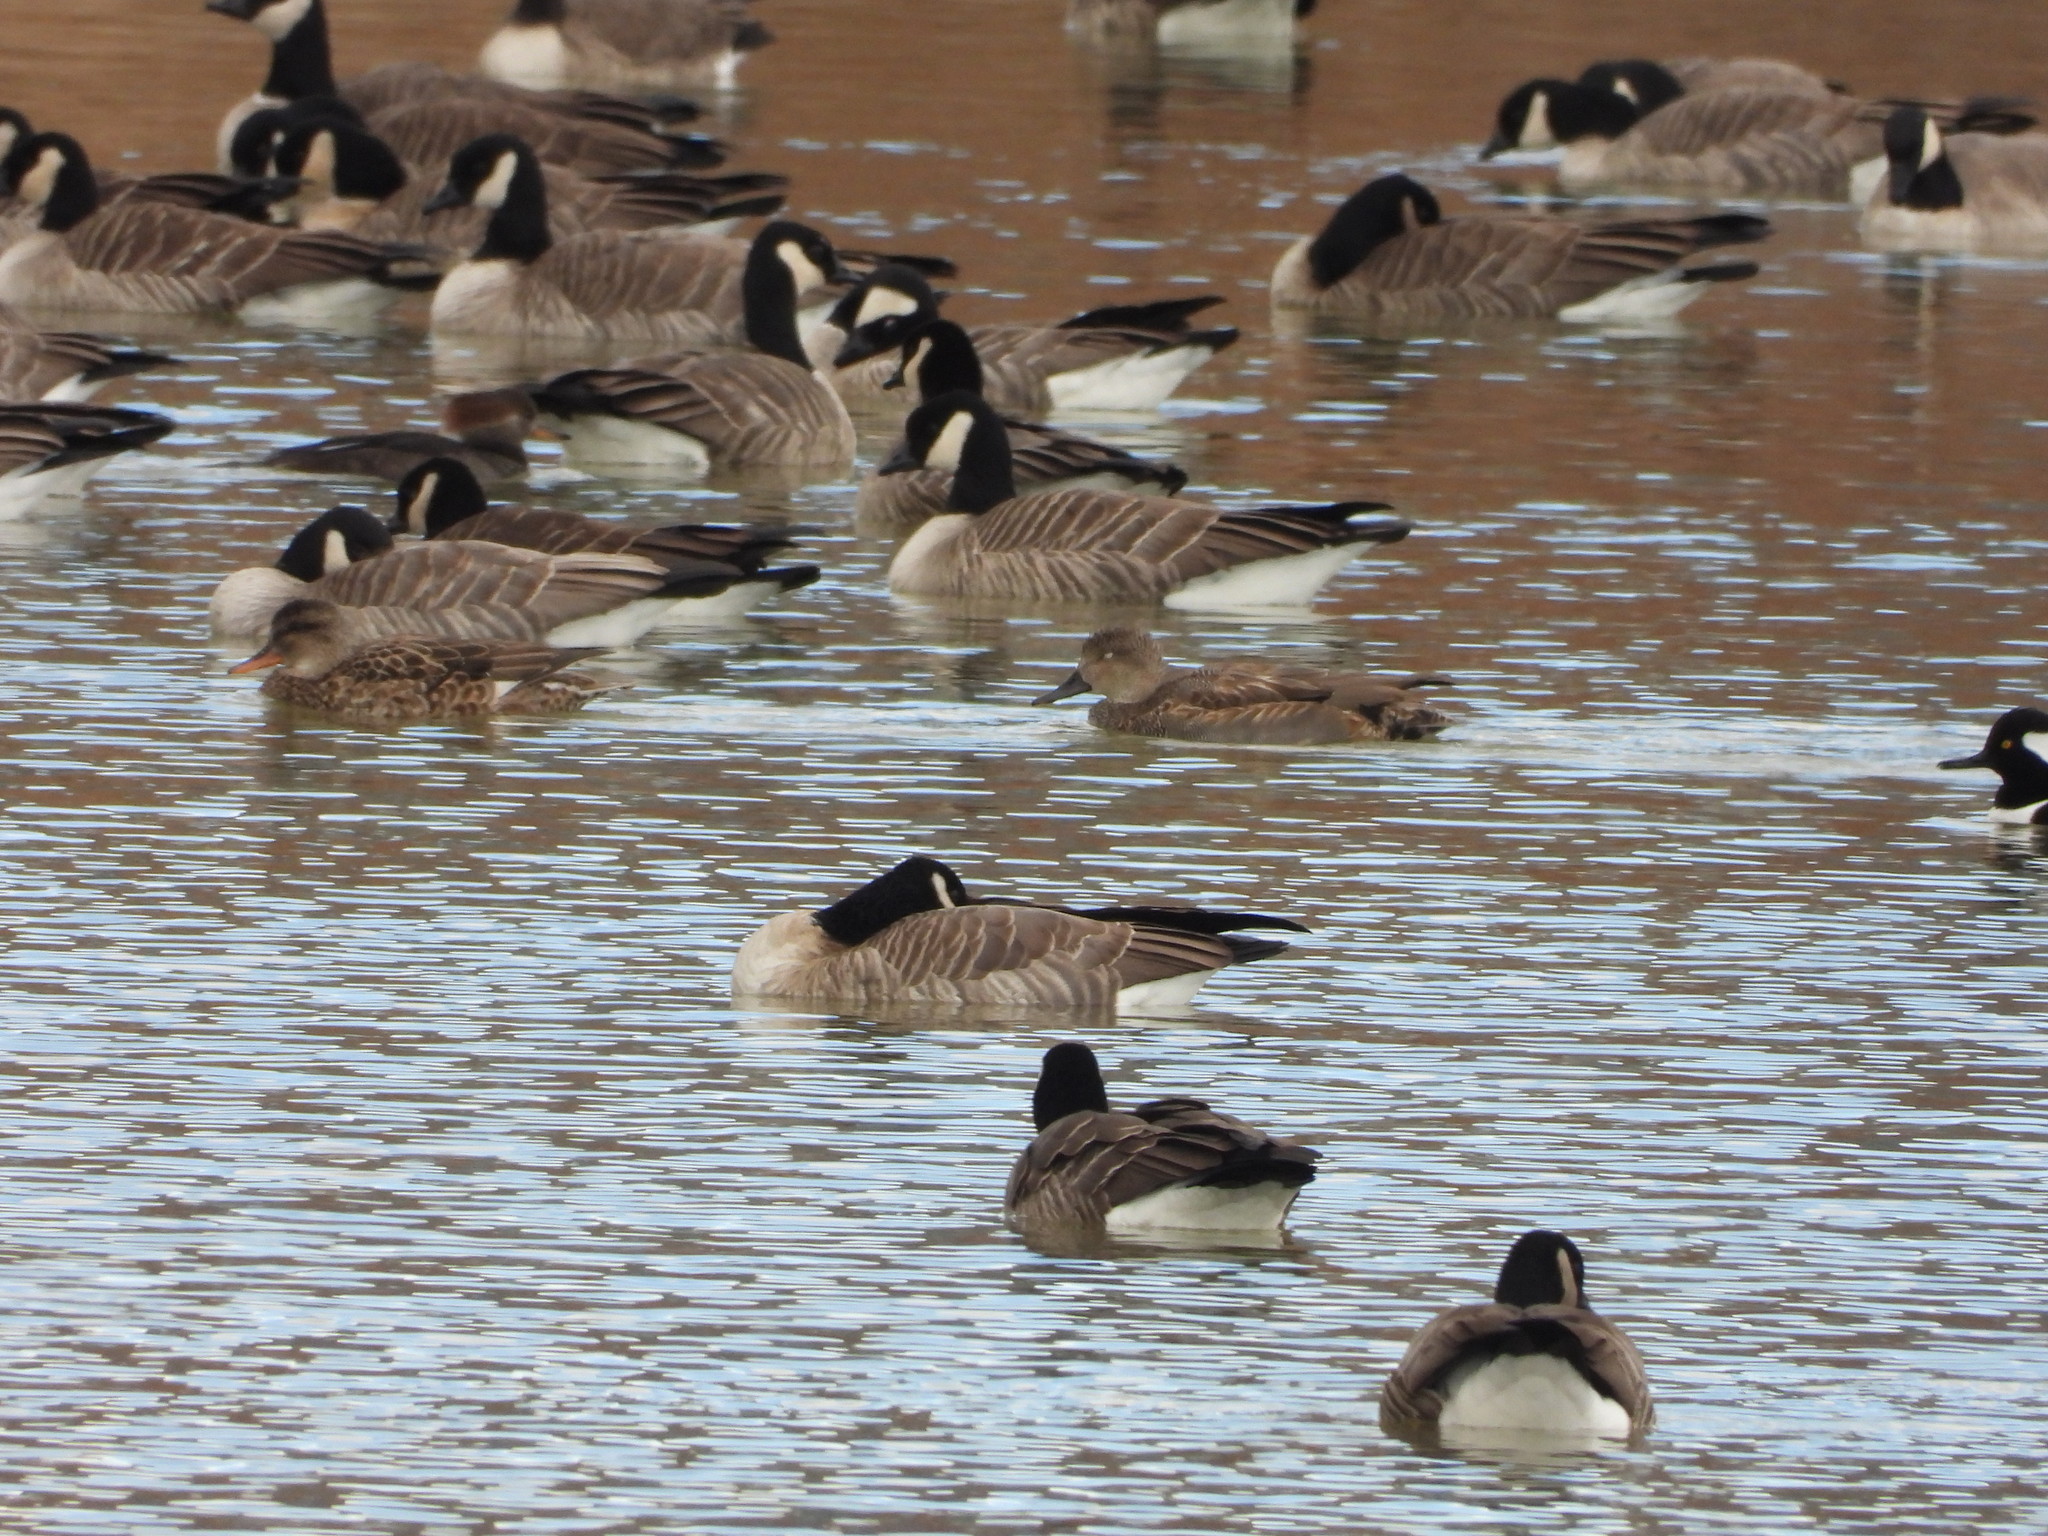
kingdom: Animalia
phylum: Chordata
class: Aves
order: Anseriformes
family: Anatidae
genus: Mareca
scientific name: Mareca strepera
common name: Gadwall
